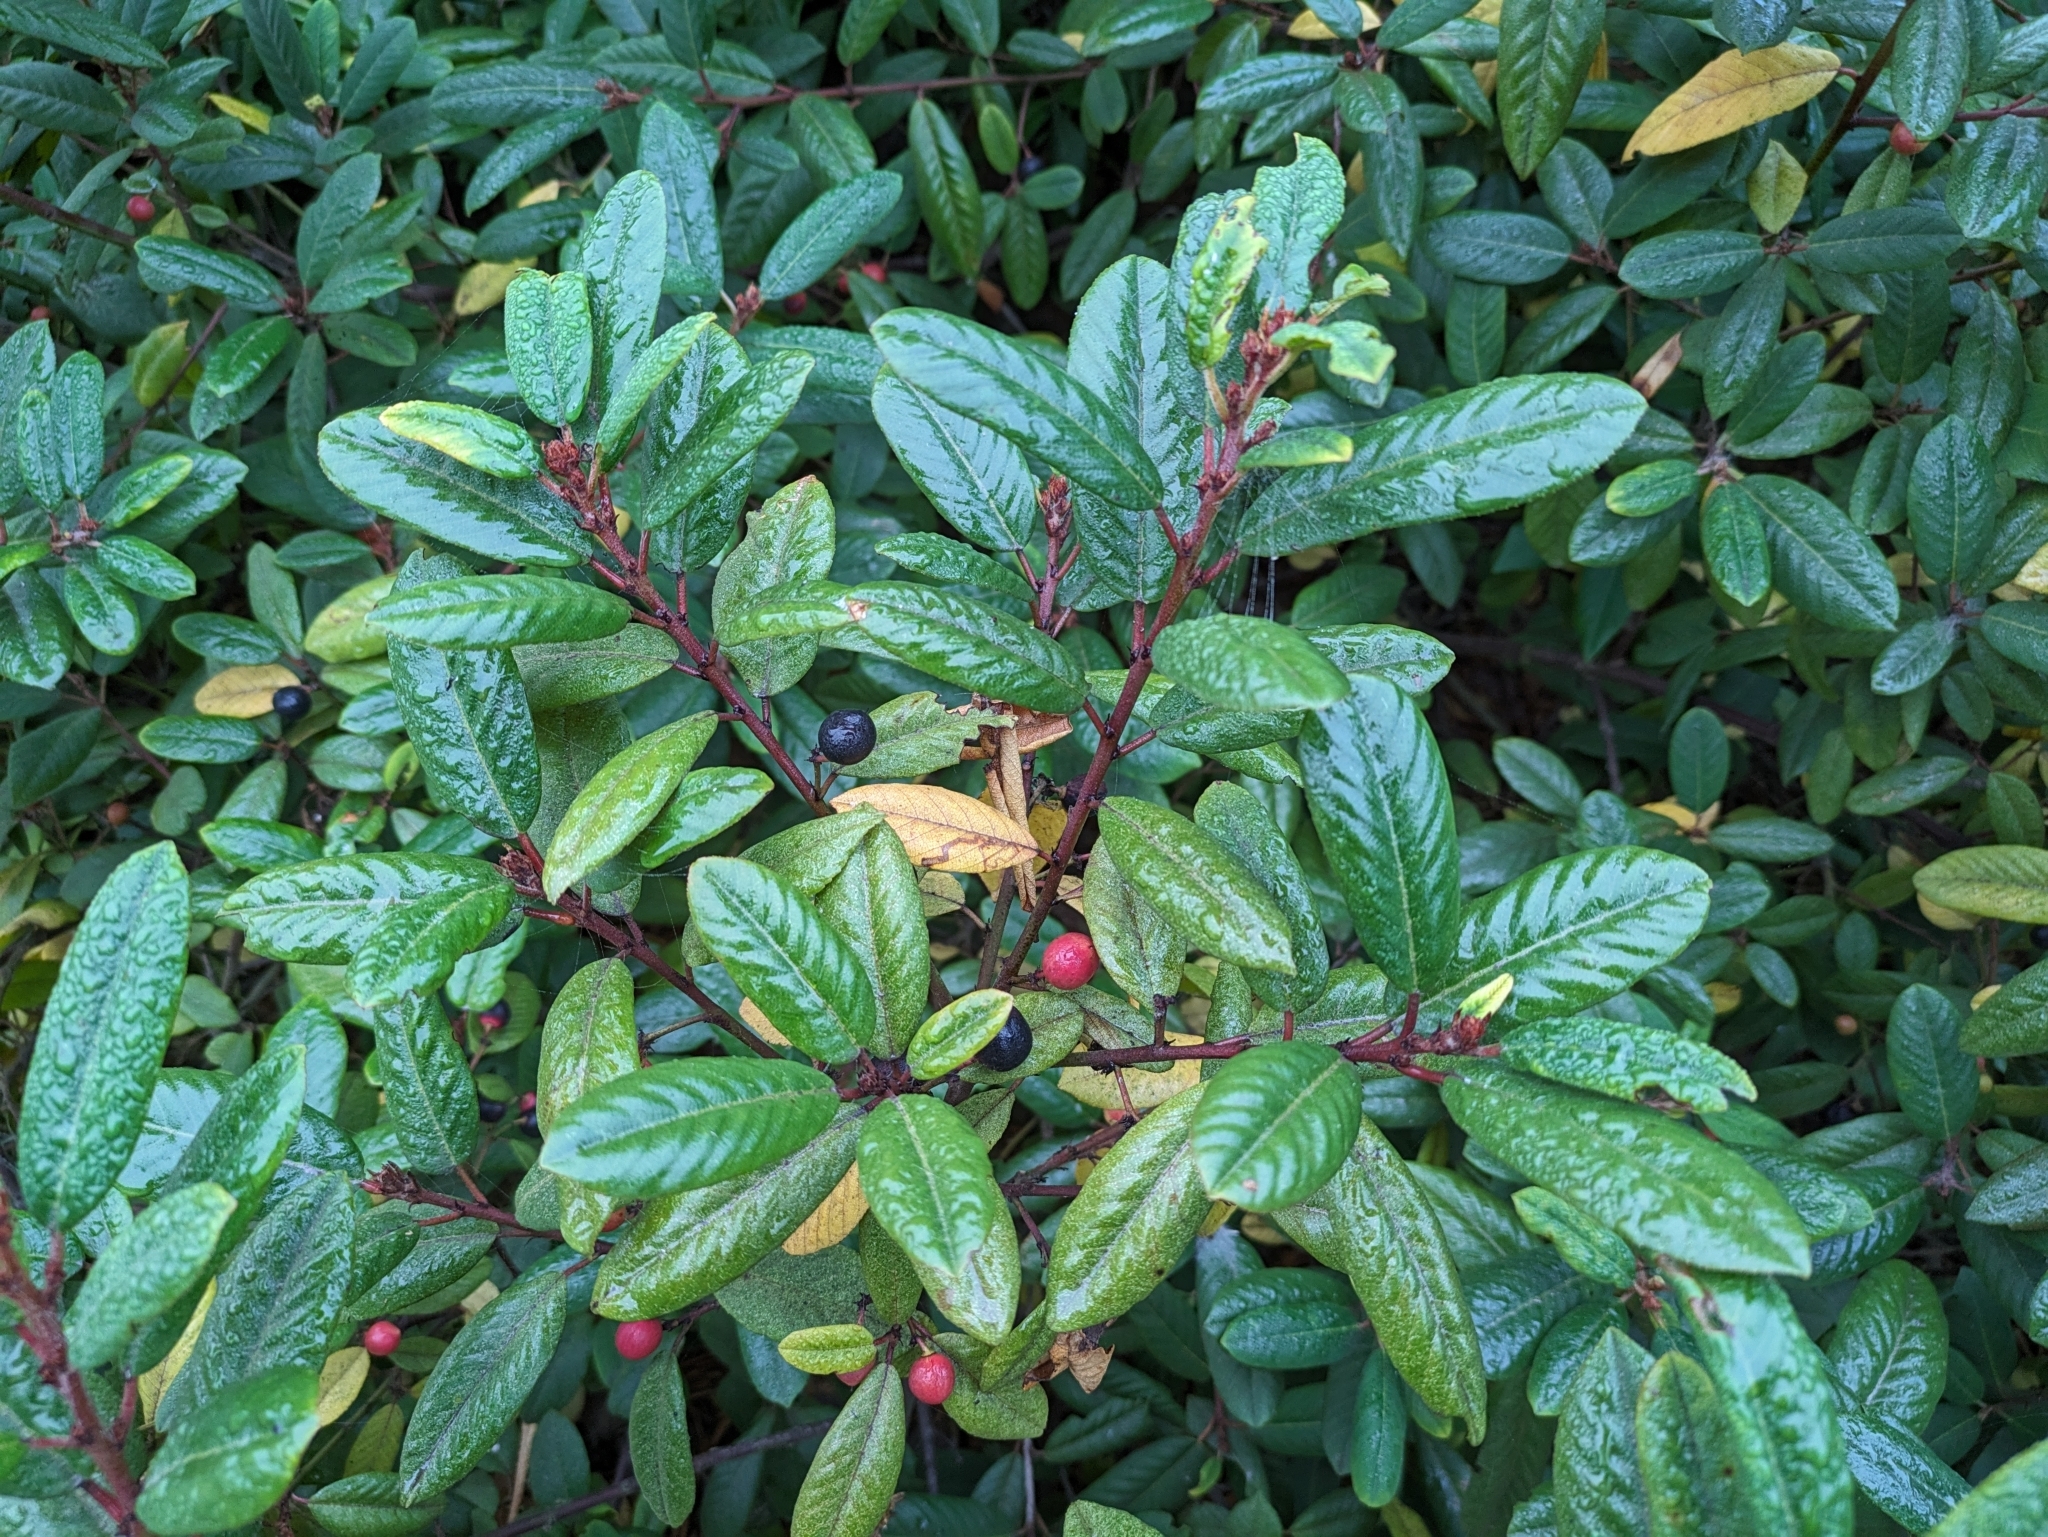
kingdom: Plantae
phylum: Tracheophyta
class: Magnoliopsida
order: Rosales
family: Rhamnaceae
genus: Frangula
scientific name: Frangula californica
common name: California buckthorn
